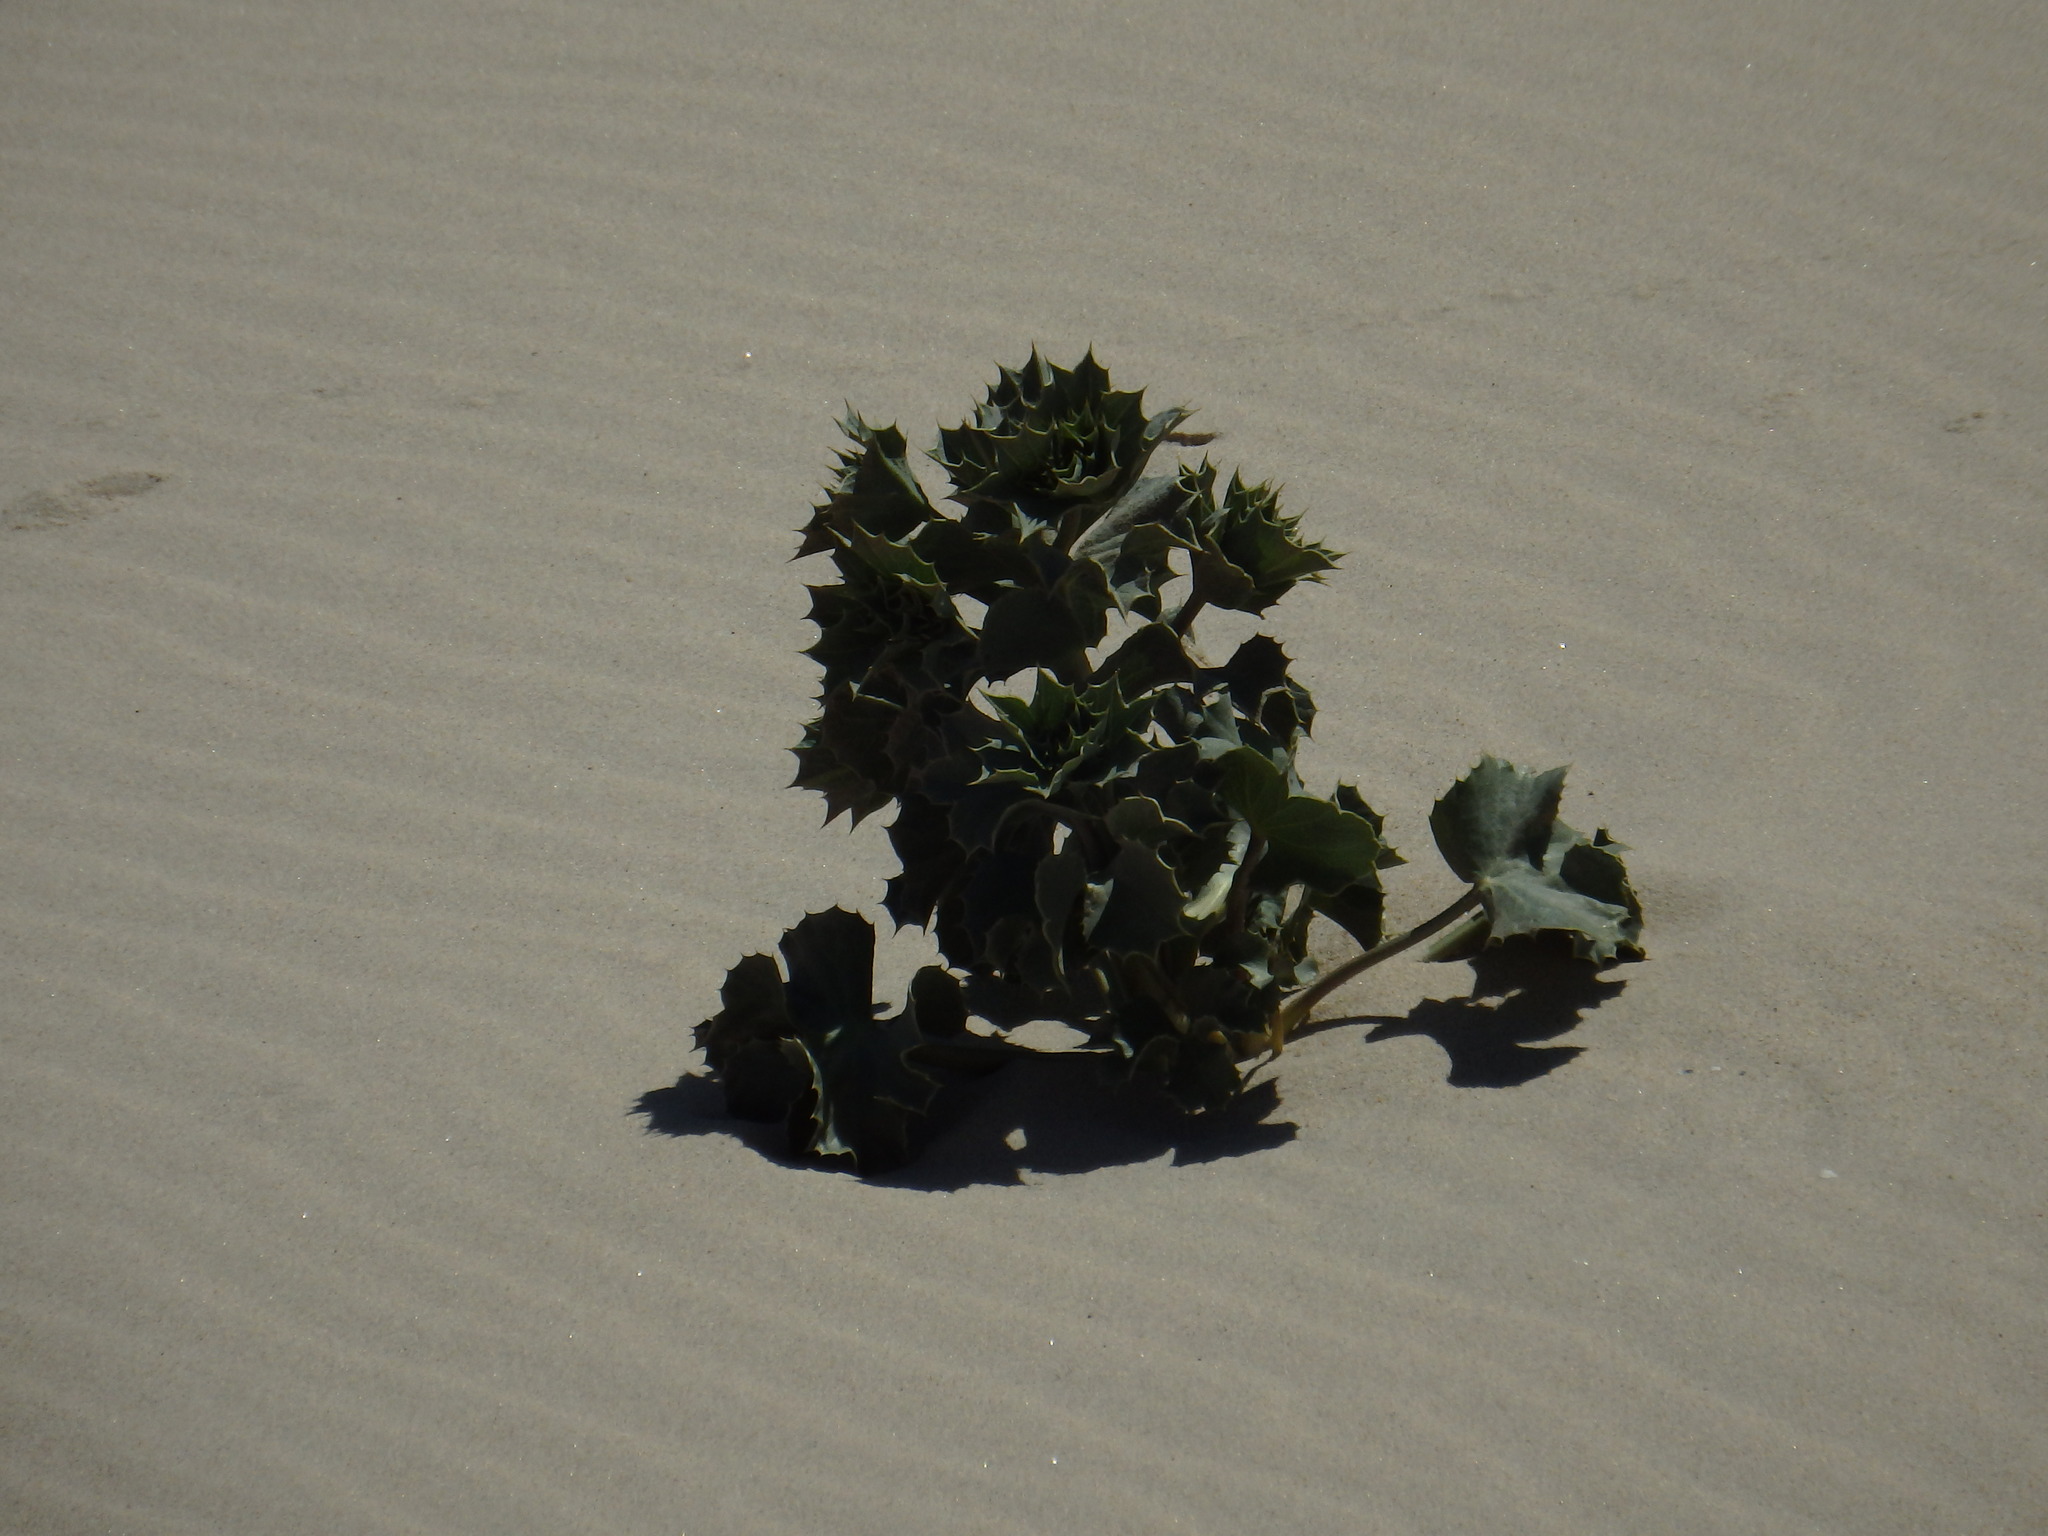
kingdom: Plantae
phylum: Tracheophyta
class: Magnoliopsida
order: Apiales
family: Apiaceae
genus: Eryngium
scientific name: Eryngium maritimum
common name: Sea-holly
